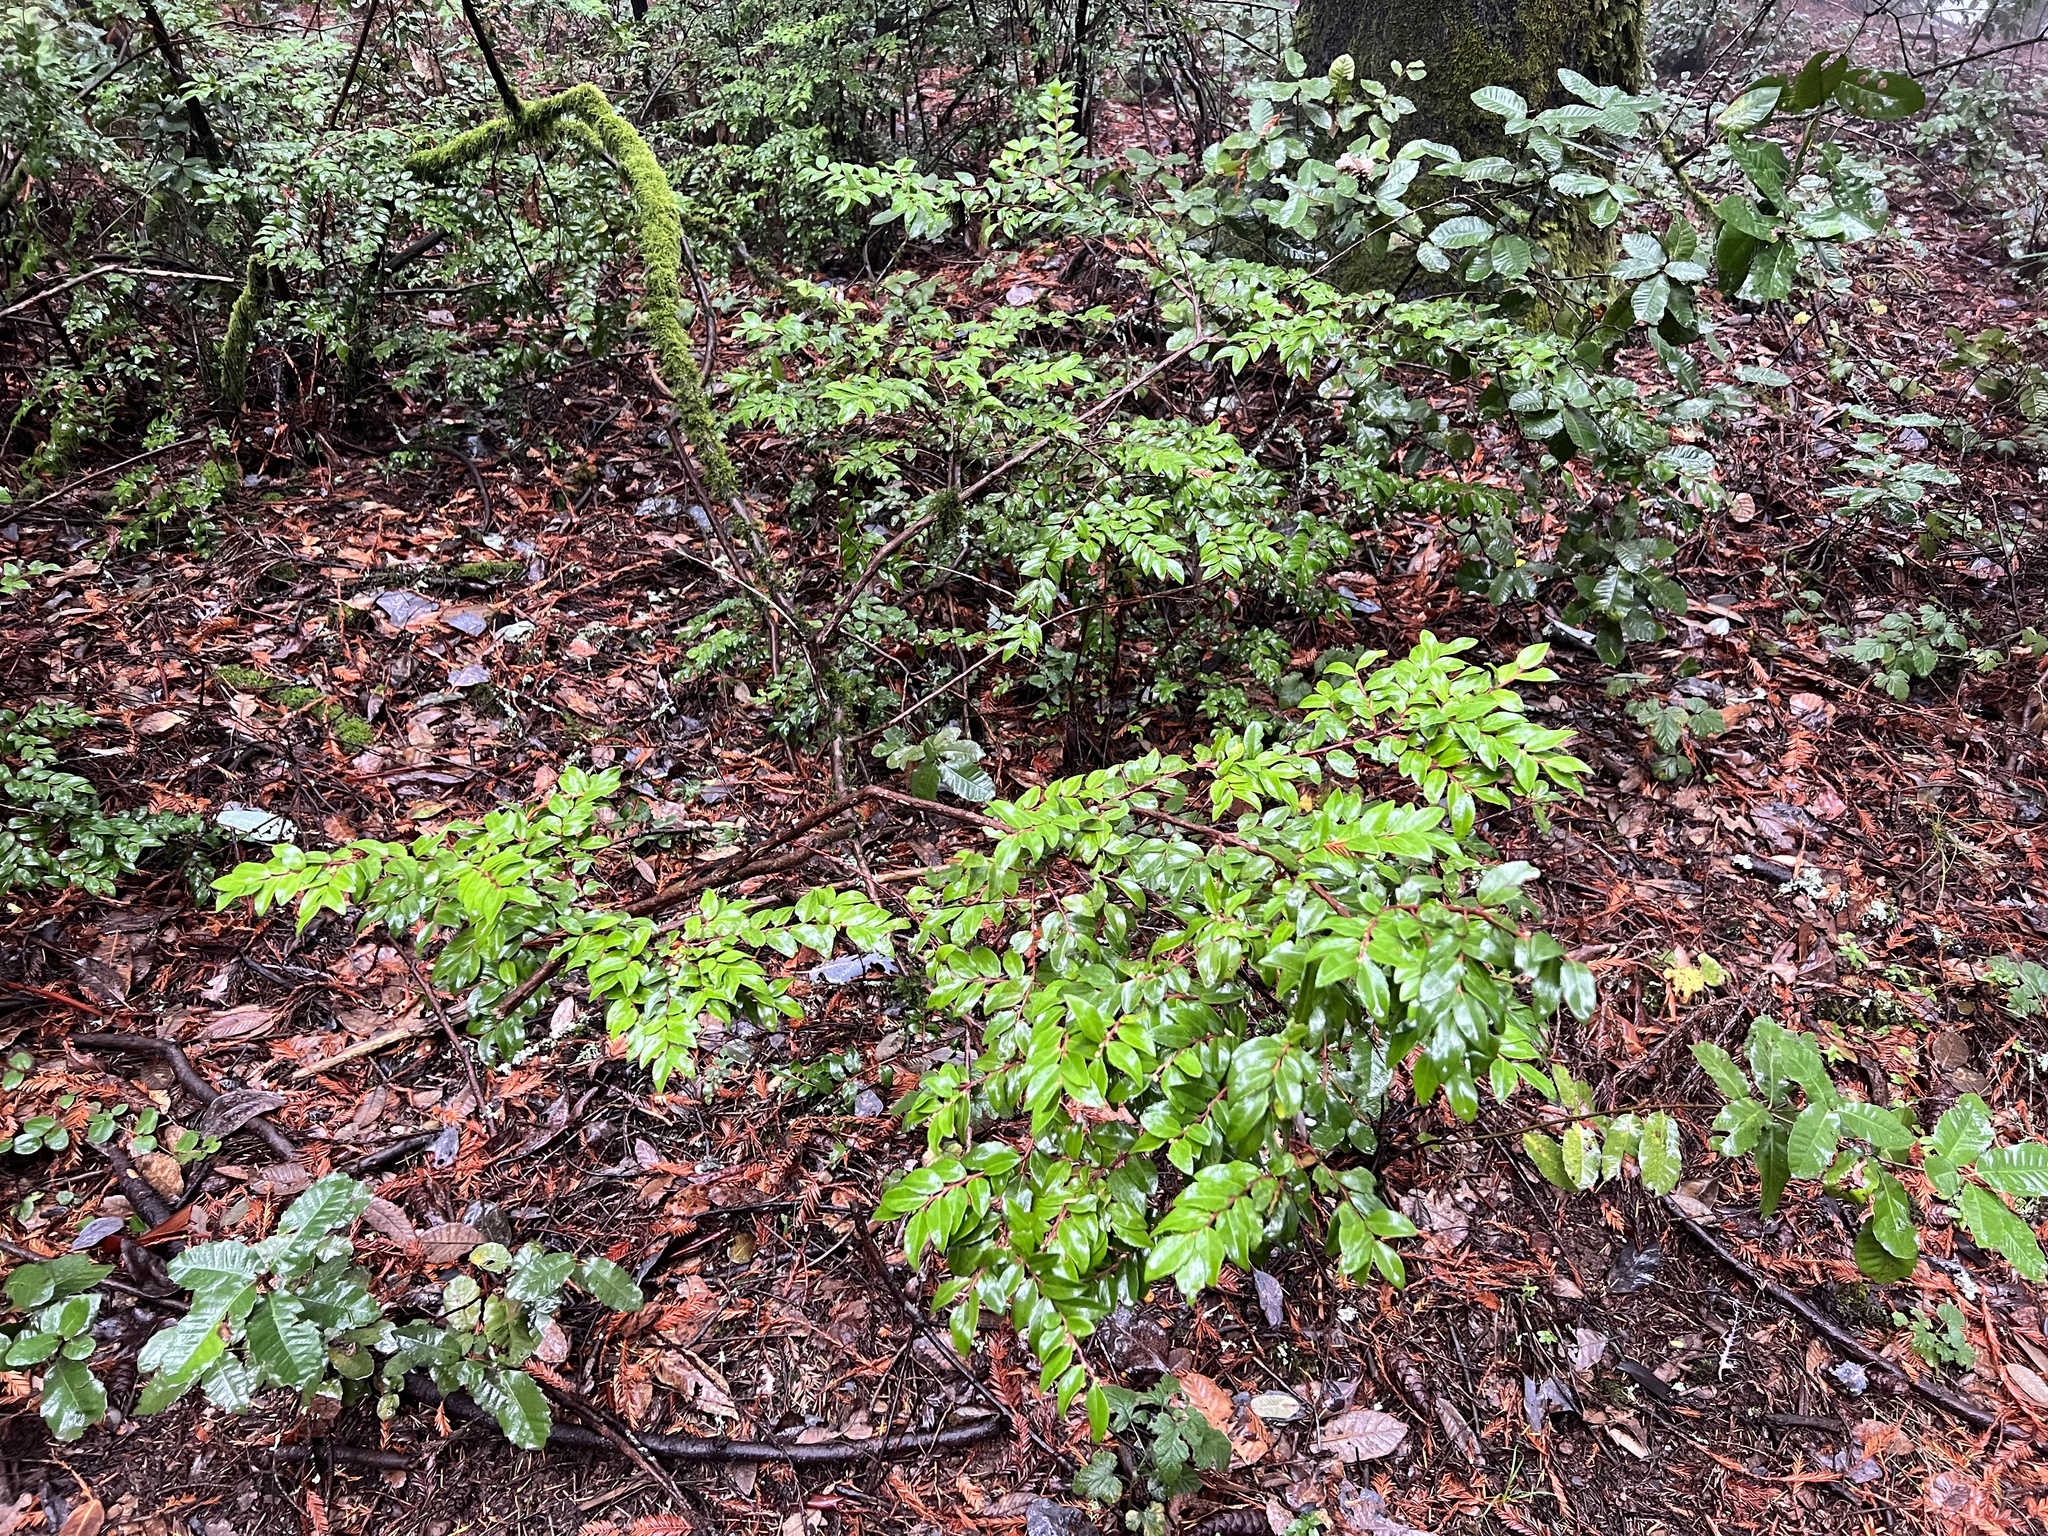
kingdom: Plantae
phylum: Tracheophyta
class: Magnoliopsida
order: Ericales
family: Ericaceae
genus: Vaccinium
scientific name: Vaccinium ovatum
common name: California-huckleberry
